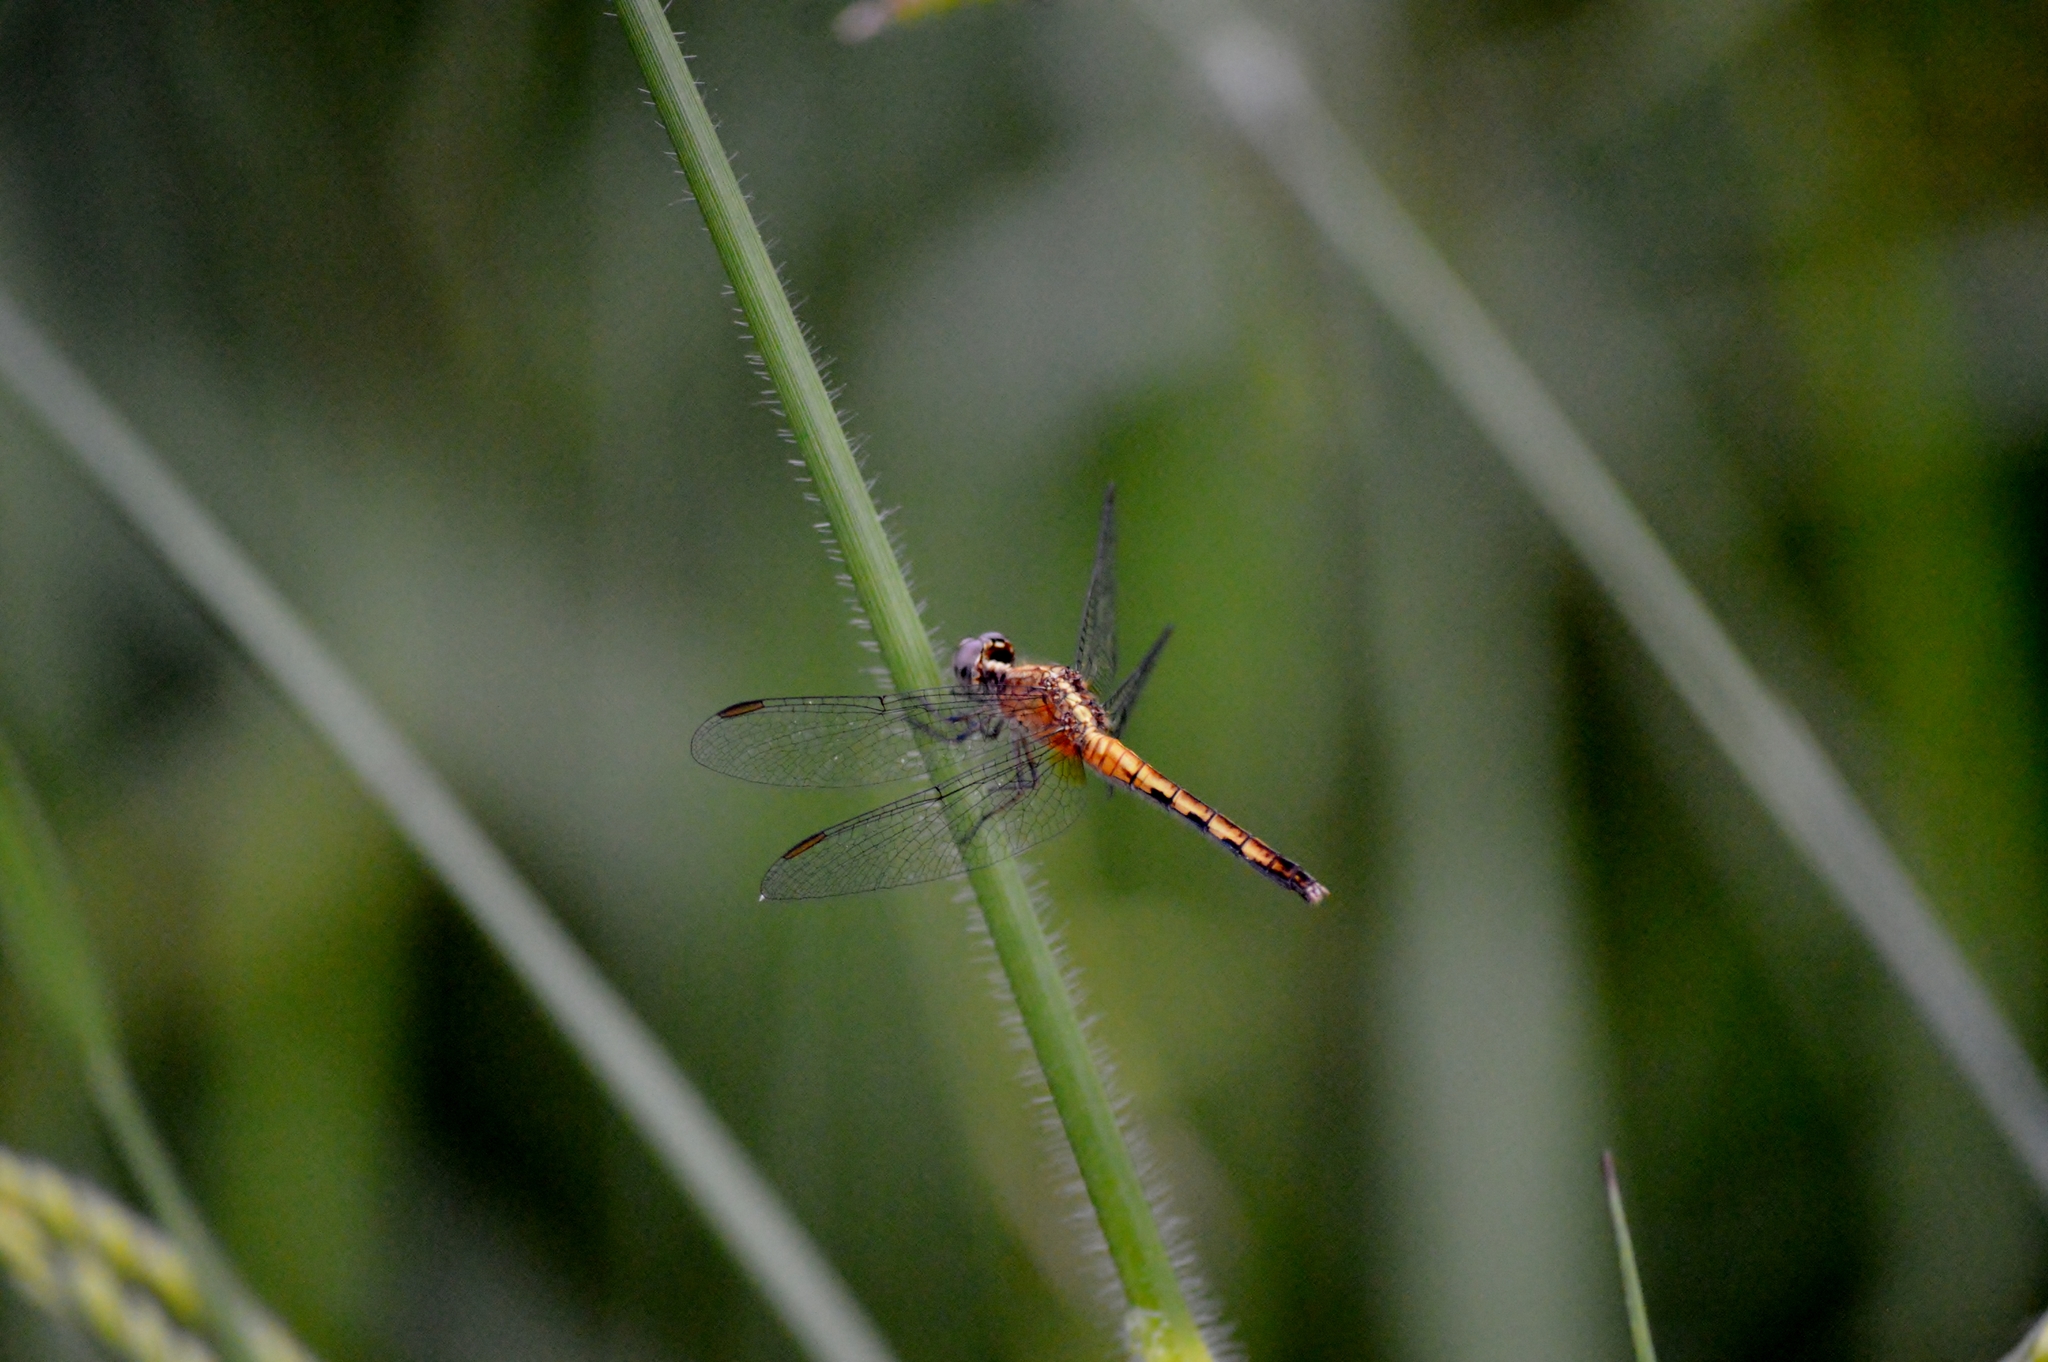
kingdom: Animalia
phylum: Arthropoda
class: Insecta
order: Odonata
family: Libellulidae
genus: Erythrodiplax
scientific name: Erythrodiplax avittata
